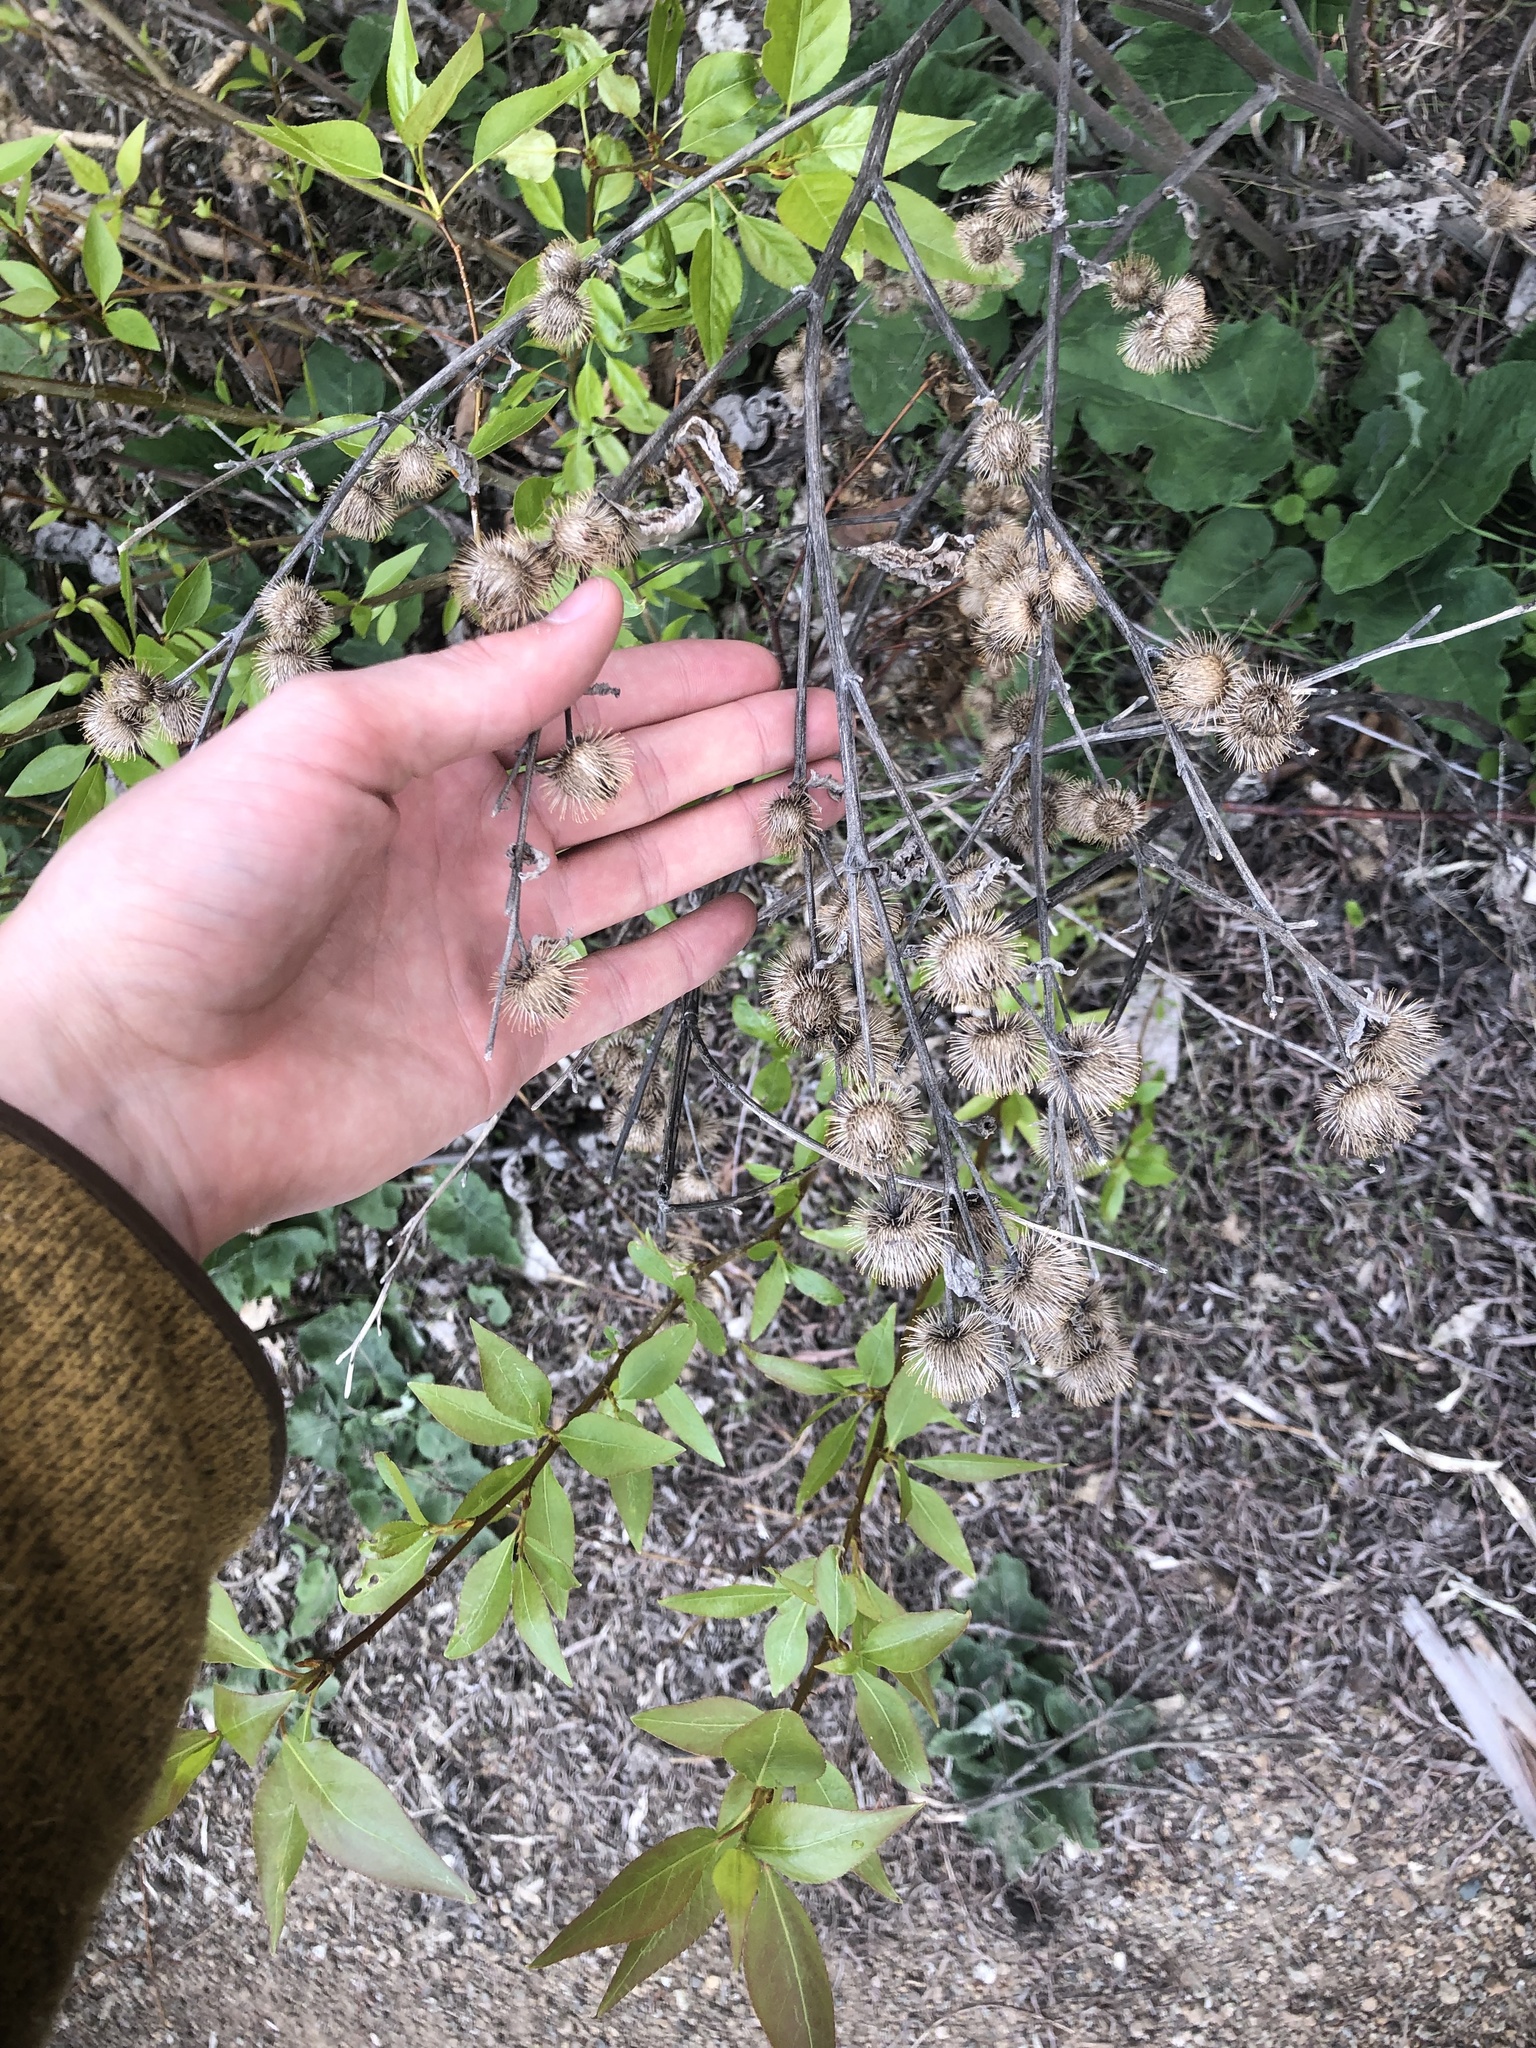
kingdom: Plantae
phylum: Tracheophyta
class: Magnoliopsida
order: Asterales
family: Asteraceae
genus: Arctium
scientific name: Arctium minus
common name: Lesser burdock
